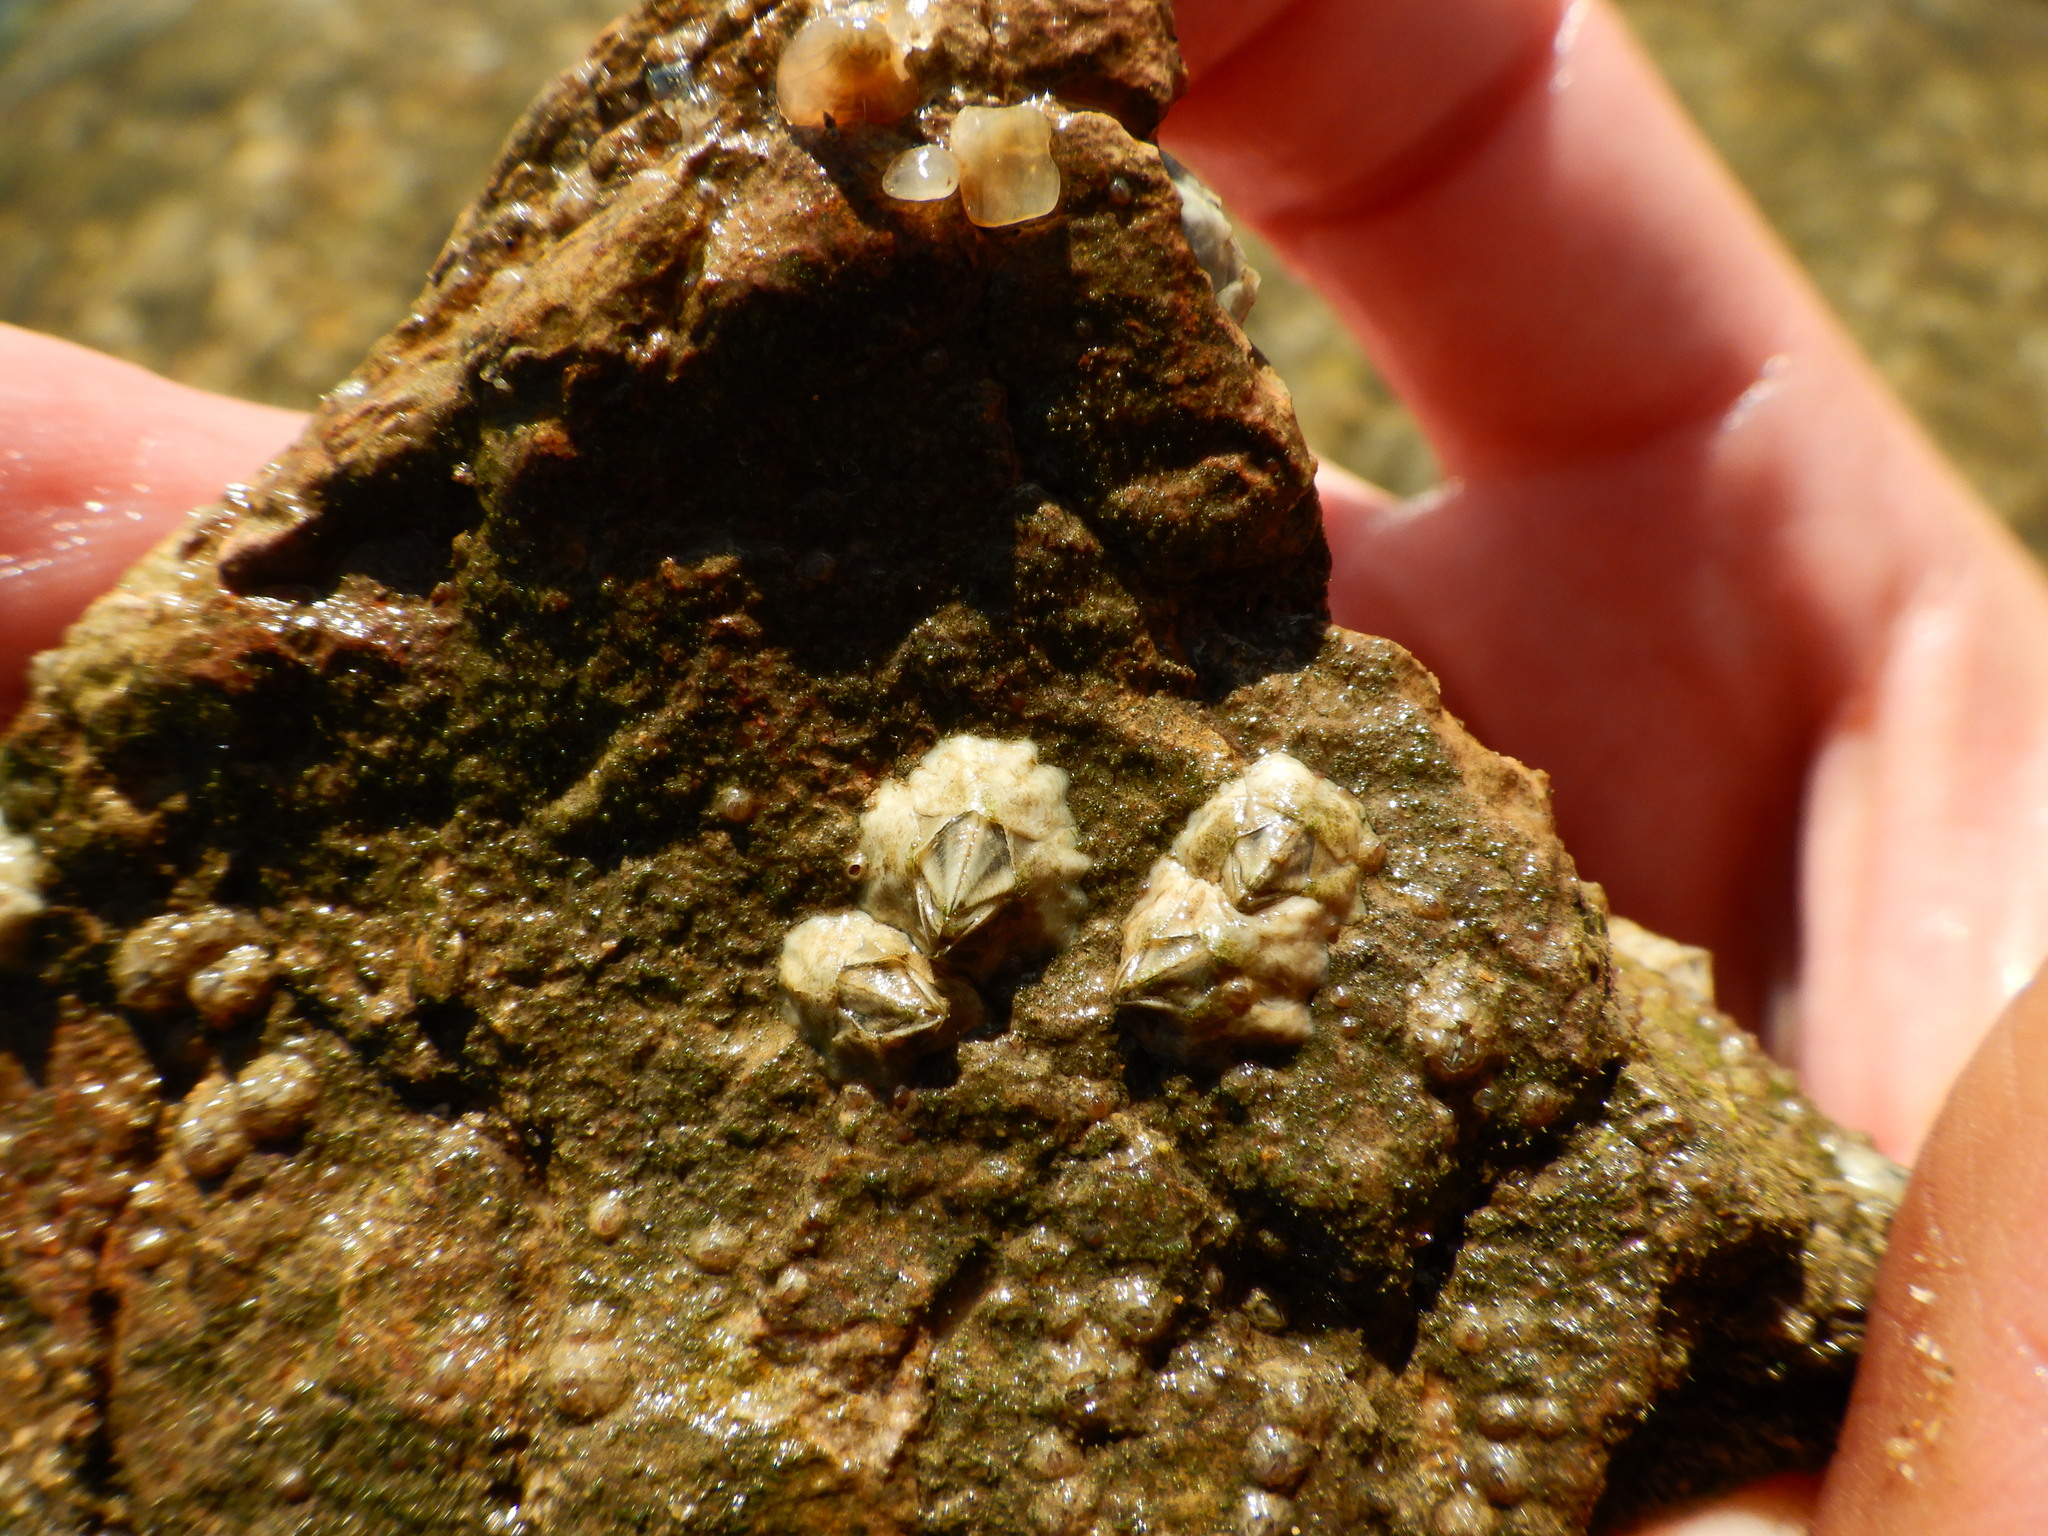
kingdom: Animalia
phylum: Arthropoda
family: Elminiidae
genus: Austrominius
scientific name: Austrominius modestus
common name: Australasian barnacle
